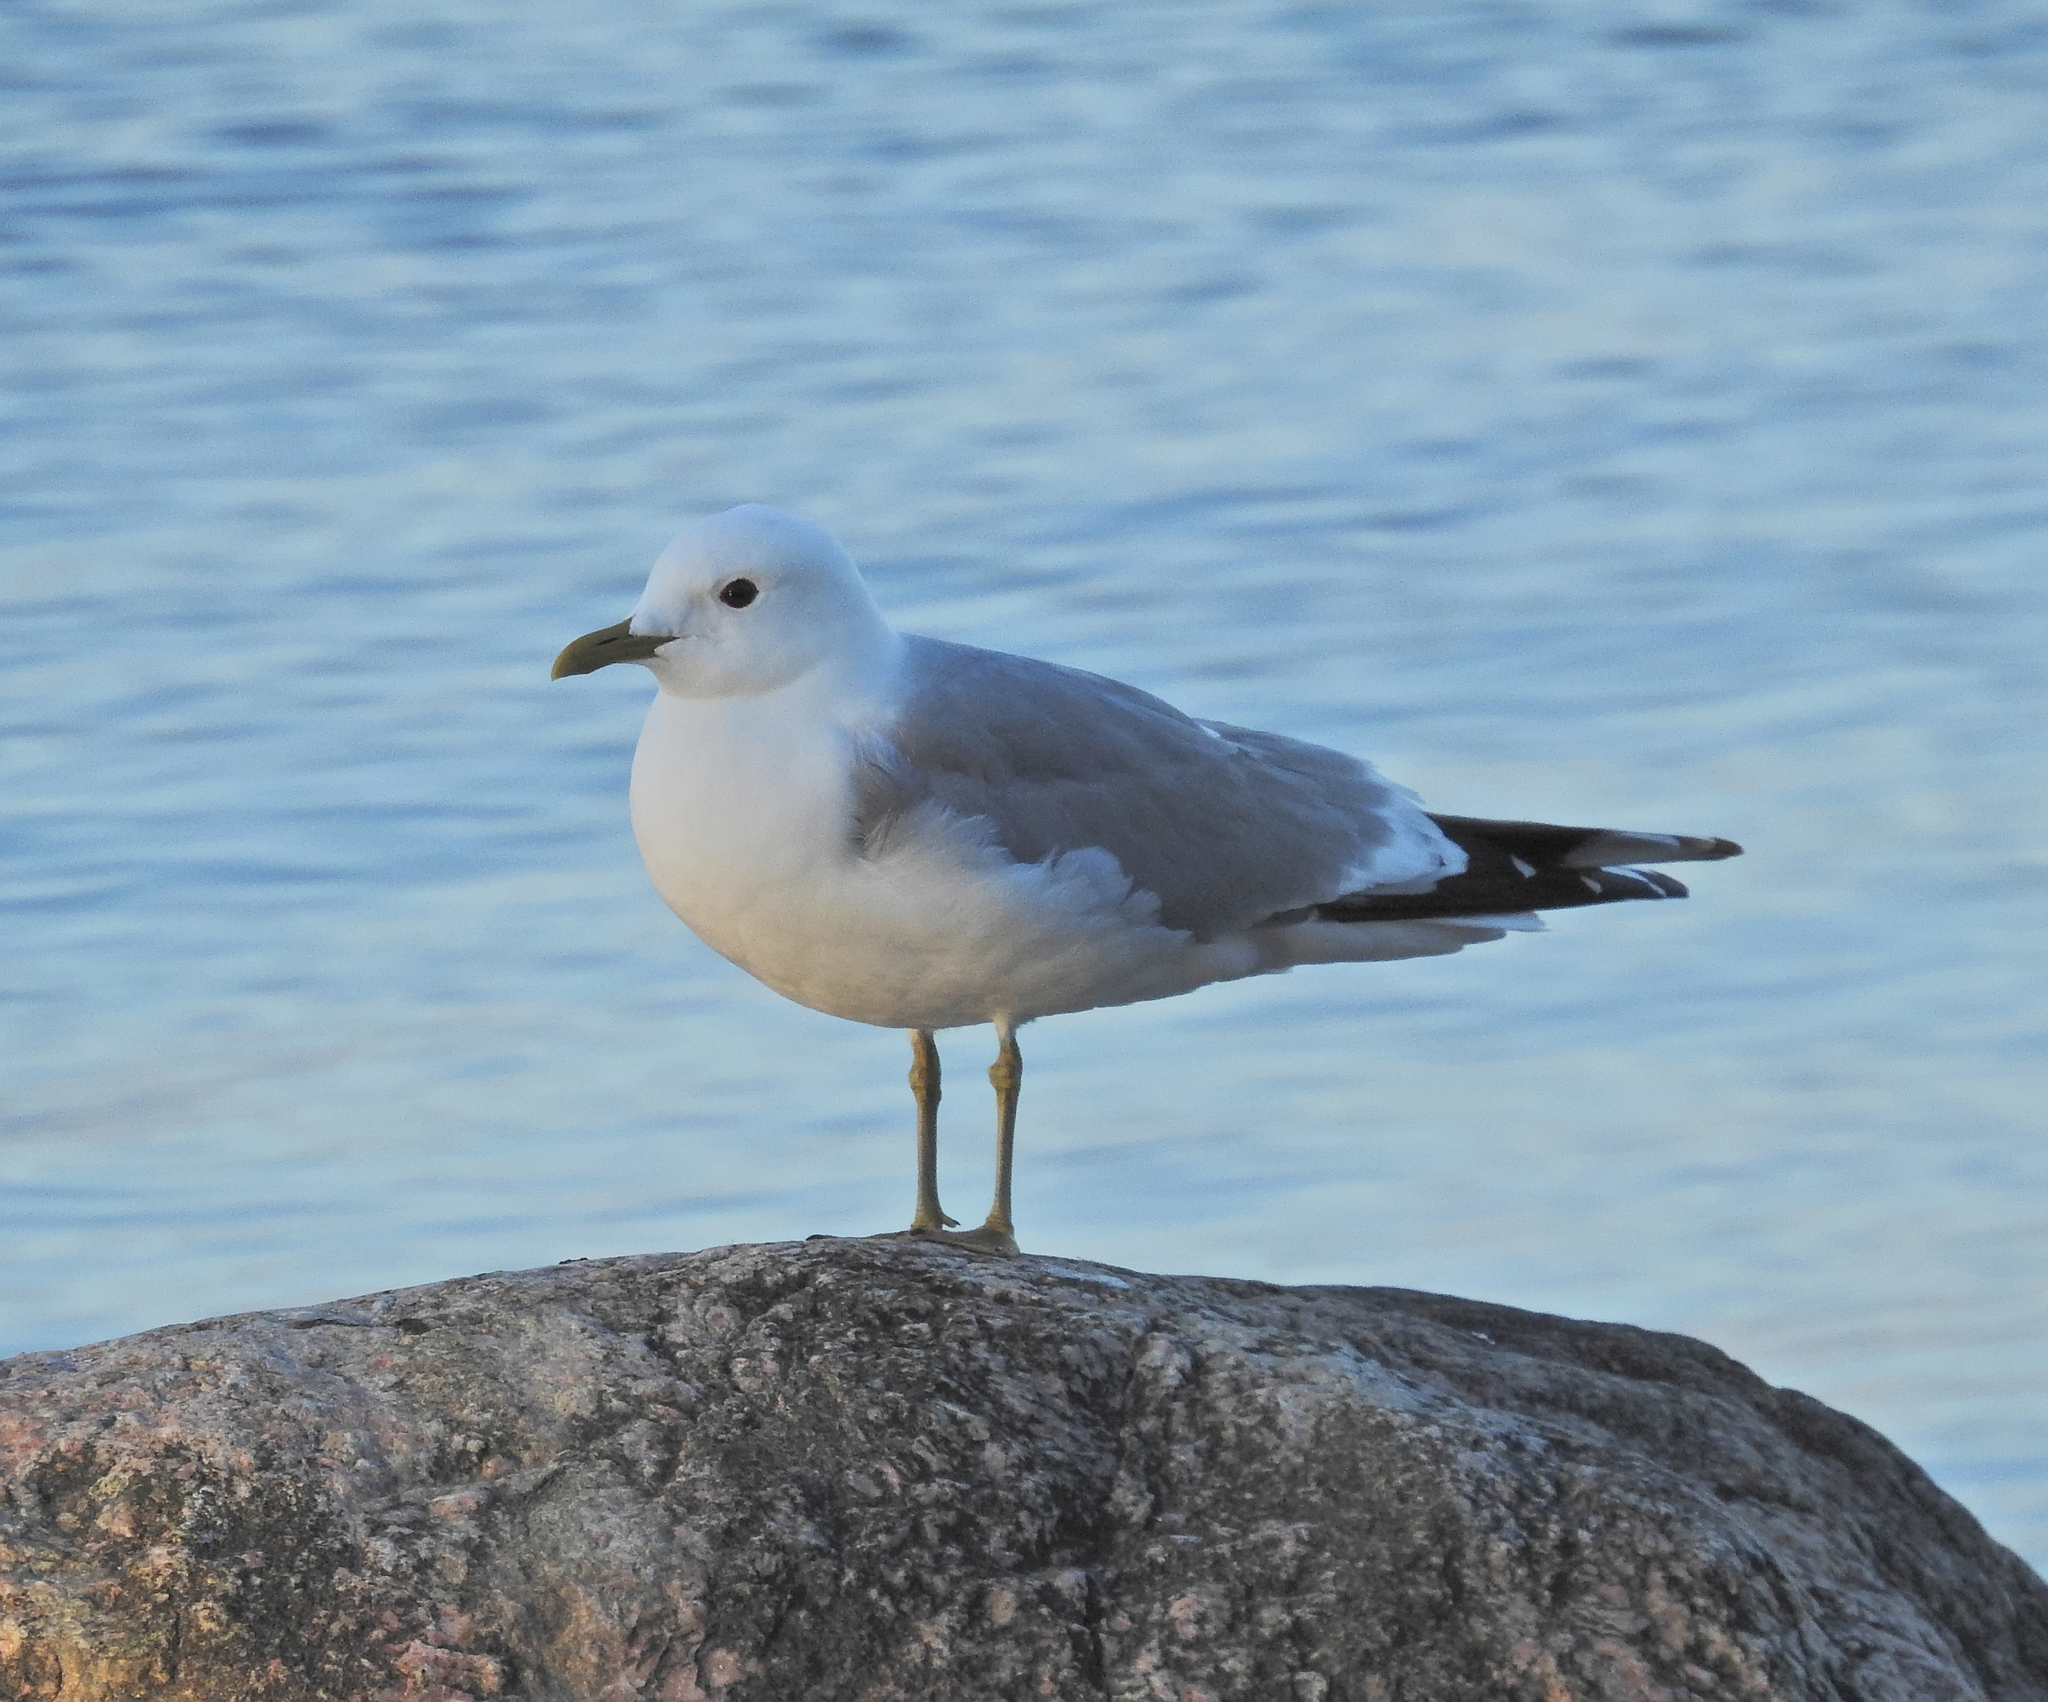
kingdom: Animalia
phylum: Chordata
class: Aves
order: Charadriiformes
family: Laridae
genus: Larus
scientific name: Larus canus
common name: Mew gull
